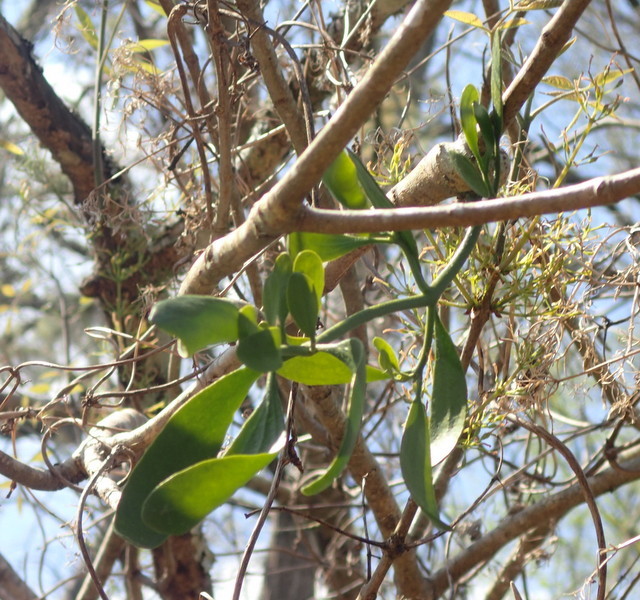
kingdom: Plantae
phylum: Tracheophyta
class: Magnoliopsida
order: Santalales
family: Viscaceae
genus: Phoradendron
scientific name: Phoradendron leucarpum
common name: Pacific mistletoe
